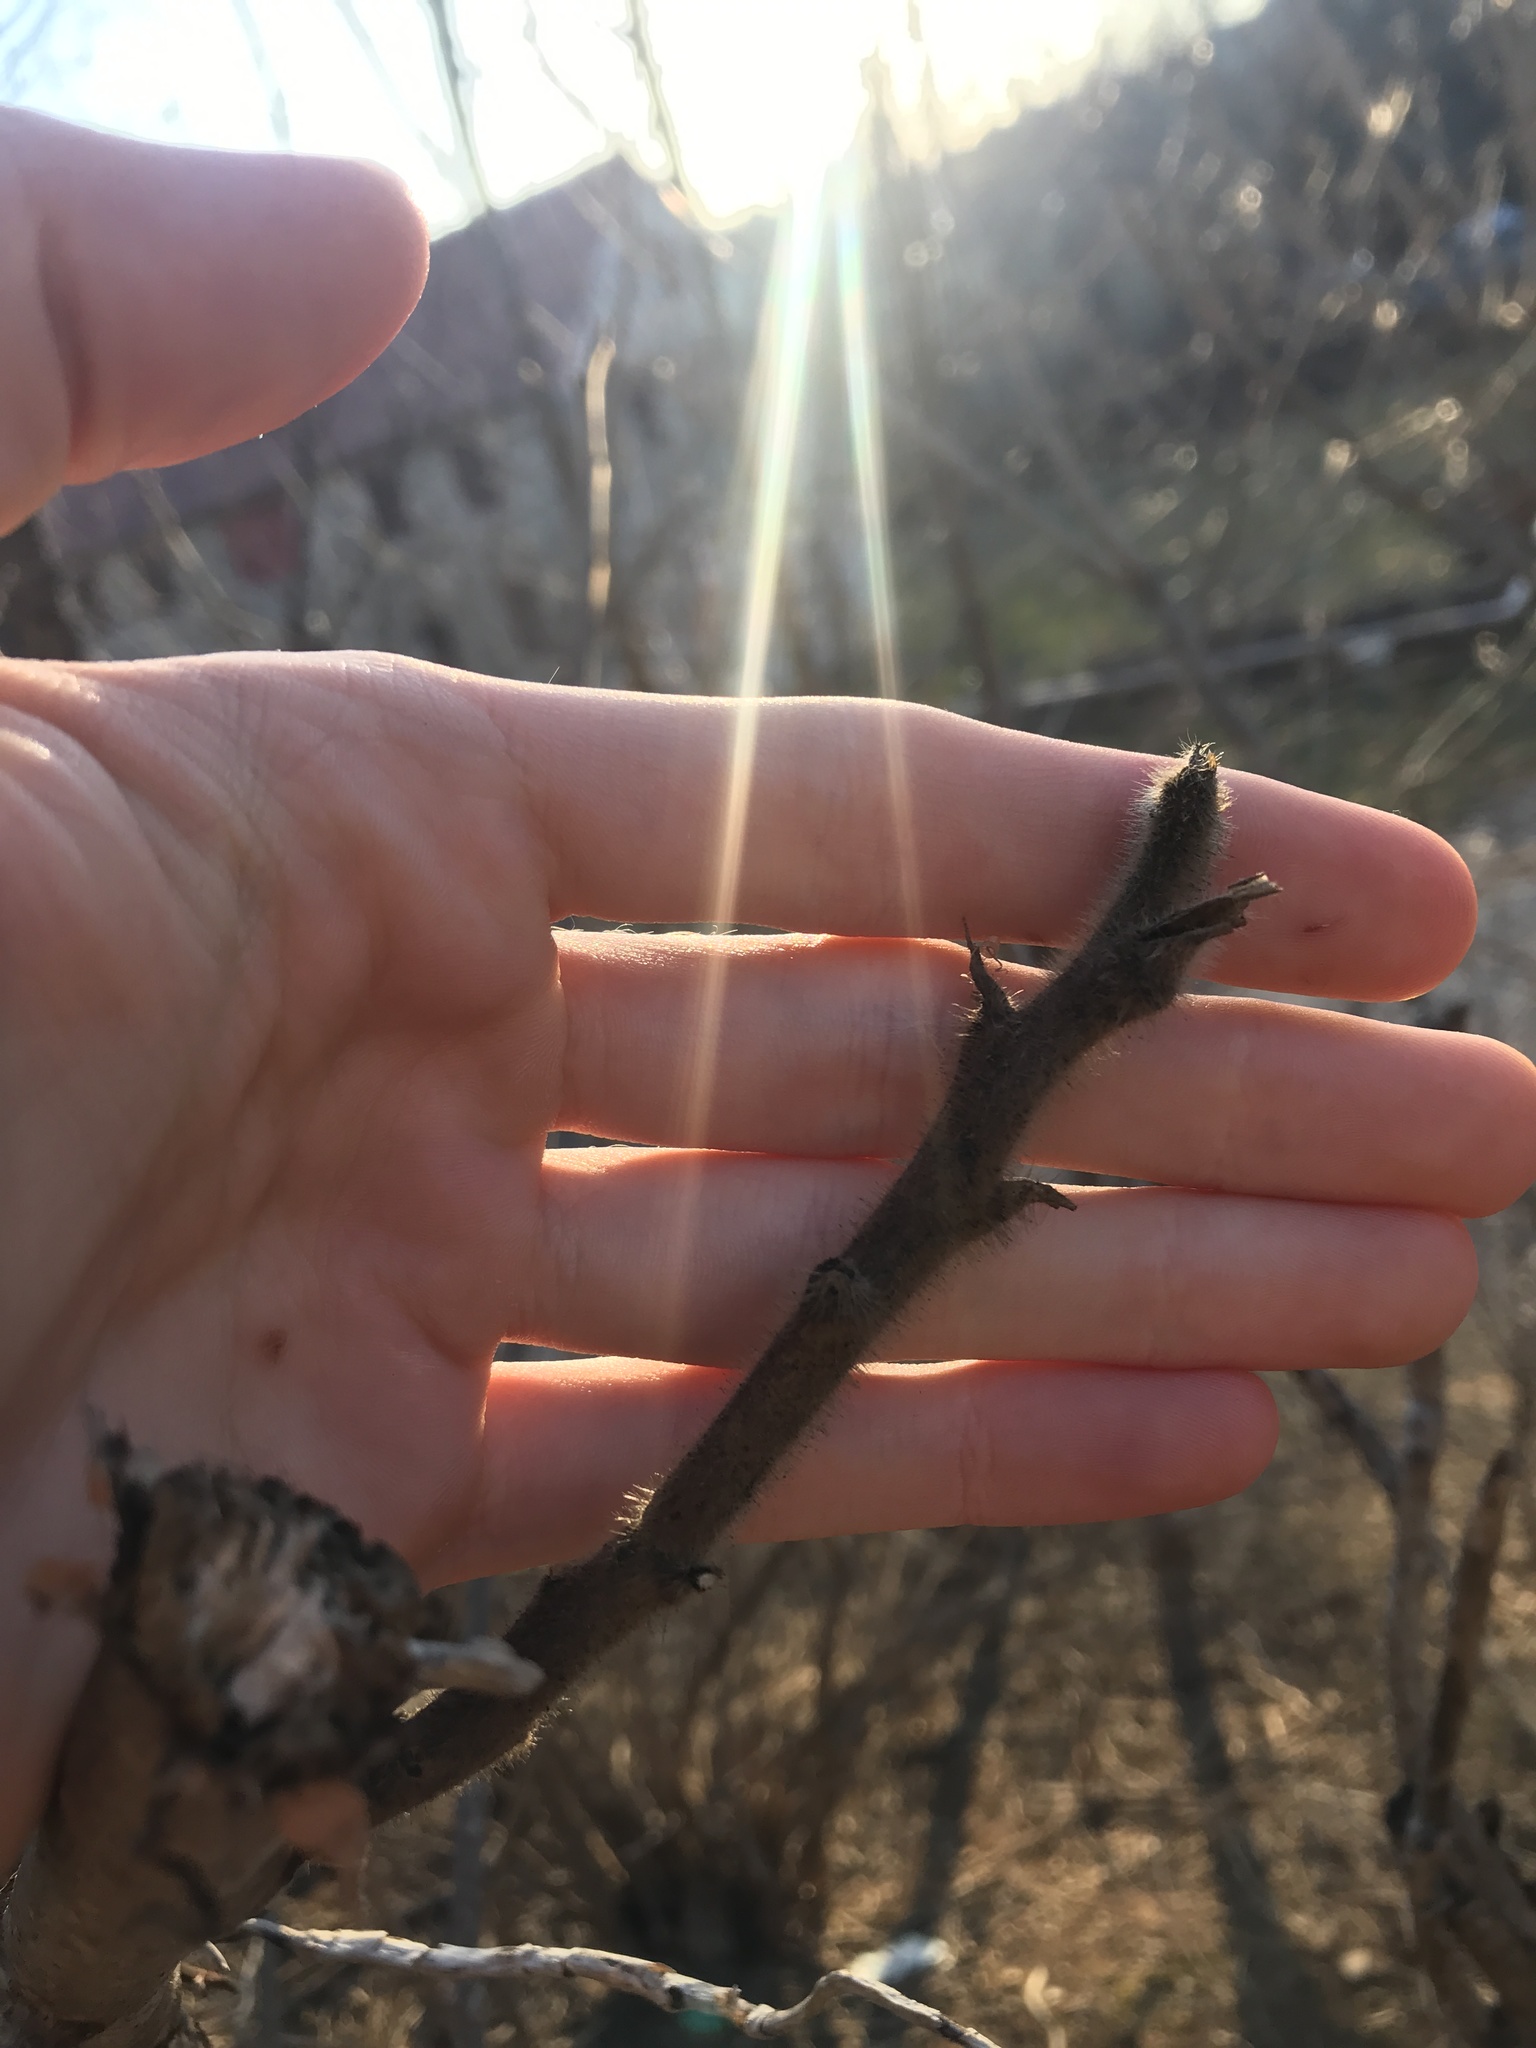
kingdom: Plantae
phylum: Tracheophyta
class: Magnoliopsida
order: Sapindales
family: Anacardiaceae
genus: Rhus
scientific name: Rhus typhina
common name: Staghorn sumac
